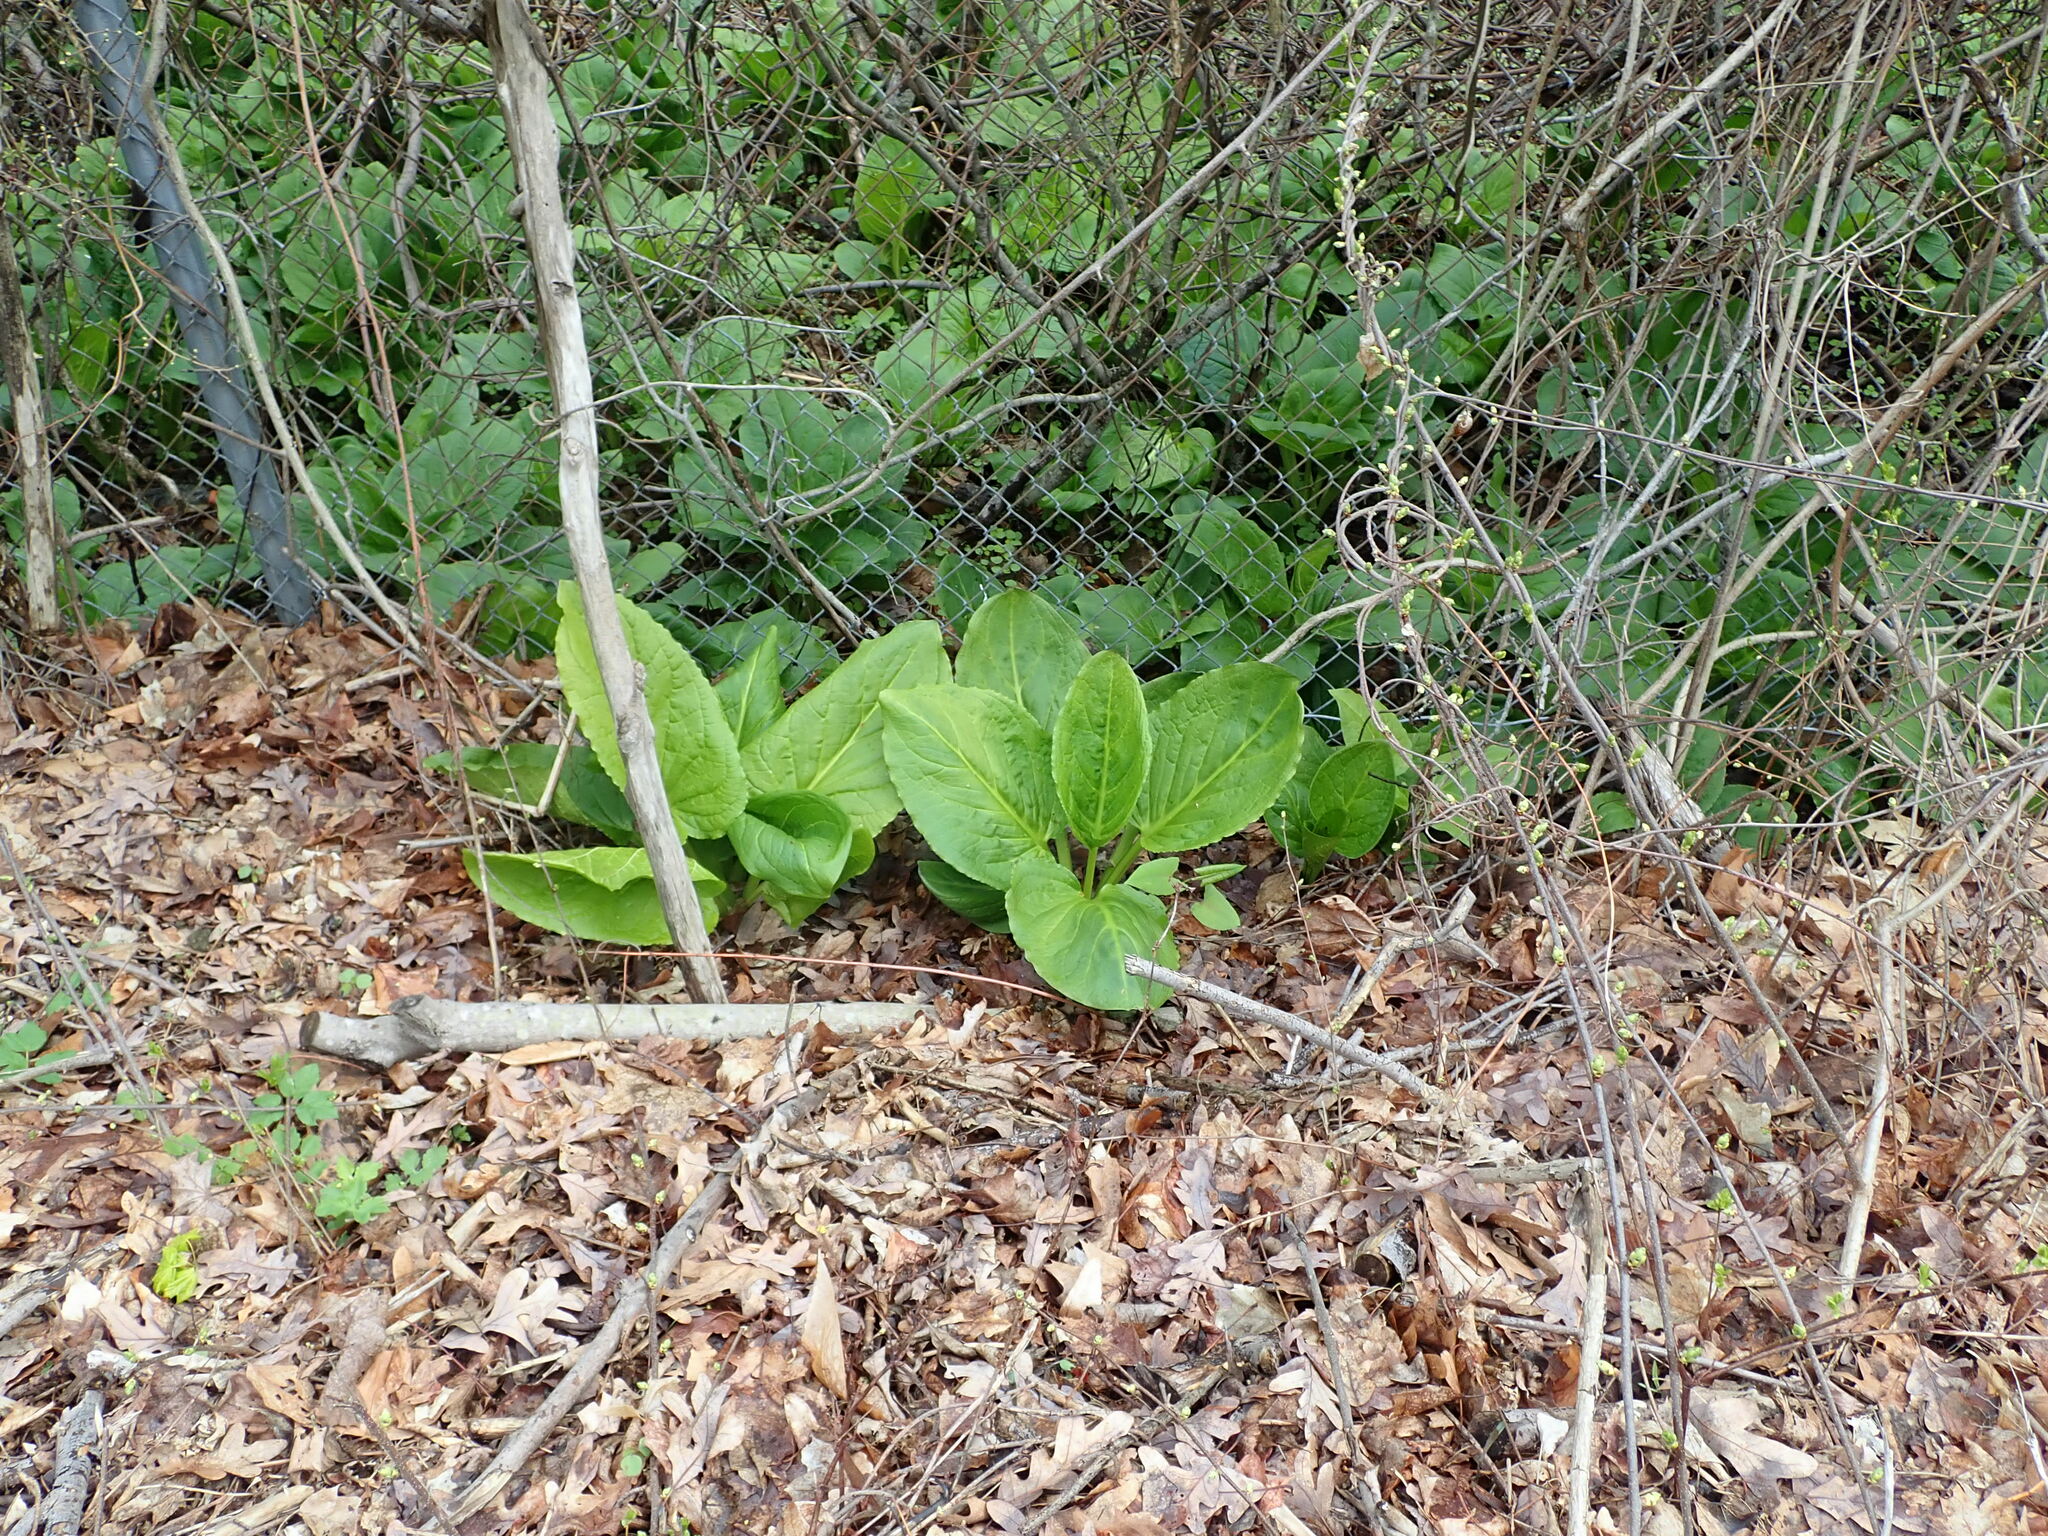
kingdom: Plantae
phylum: Tracheophyta
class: Liliopsida
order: Alismatales
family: Araceae
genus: Symplocarpus
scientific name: Symplocarpus foetidus
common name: Eastern skunk cabbage
